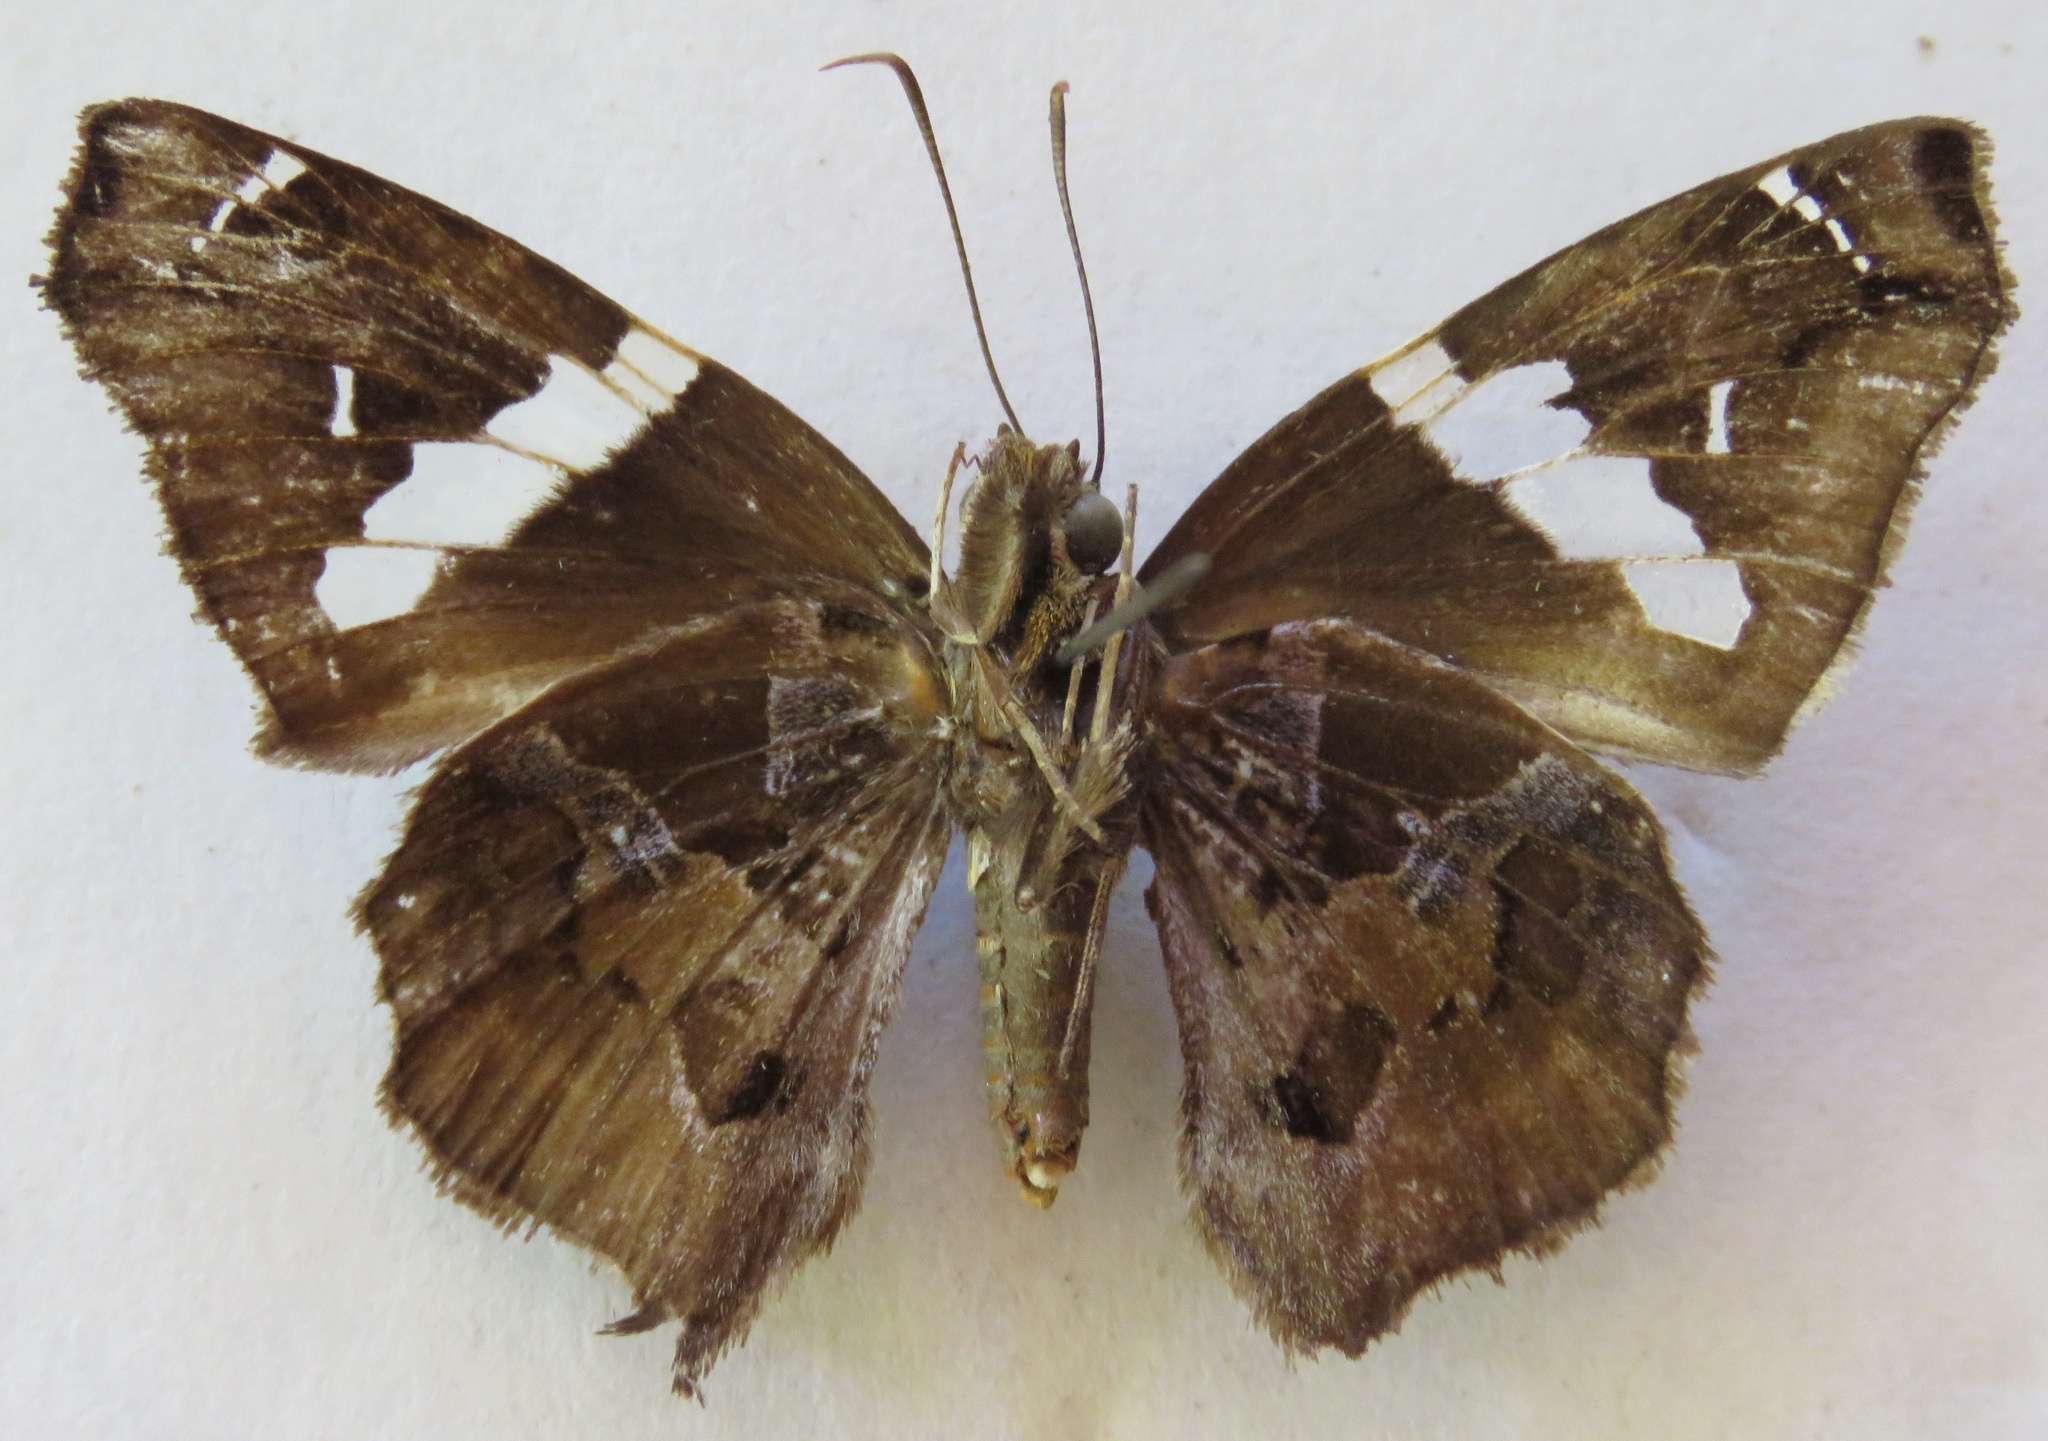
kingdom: Animalia
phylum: Arthropoda
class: Insecta
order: Lepidoptera
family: Hesperiidae
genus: Spathilepia
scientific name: Spathilepia clonius
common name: Falcate skipper
